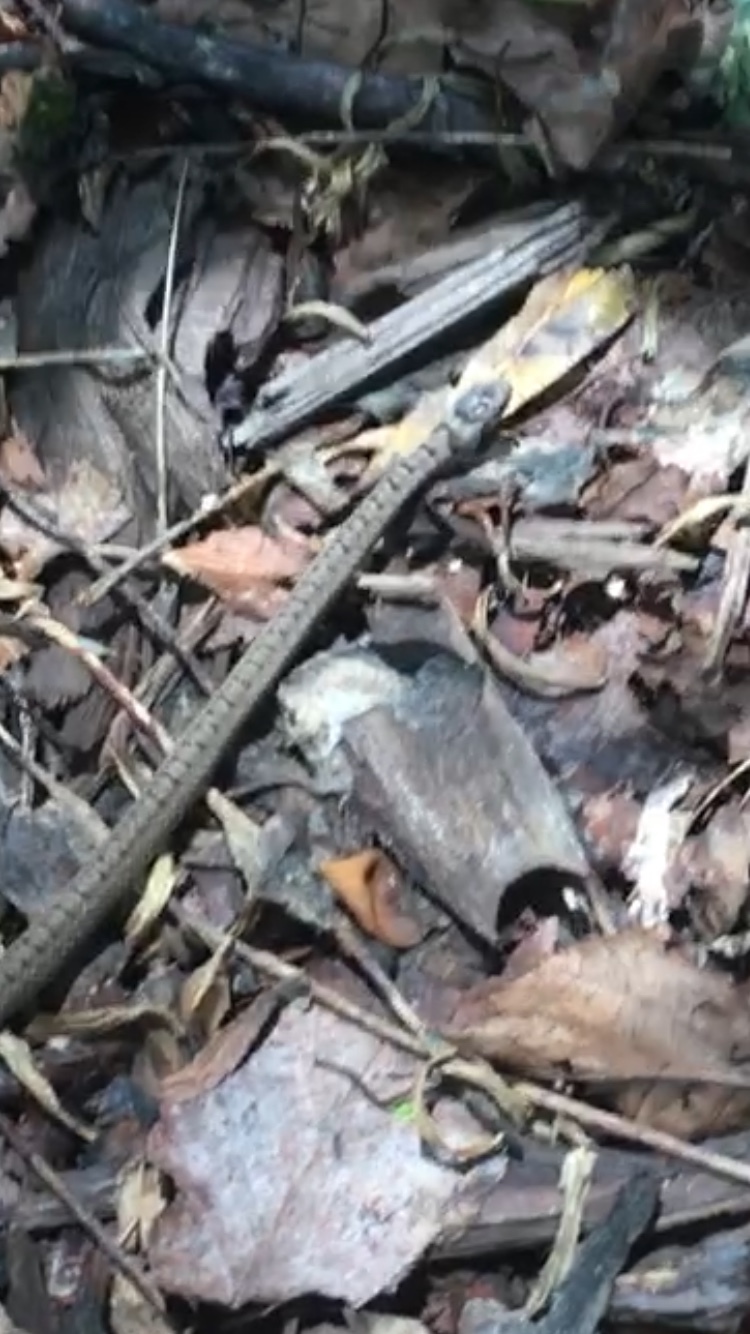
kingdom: Animalia
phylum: Chordata
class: Squamata
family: Colubridae
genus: Storeria
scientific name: Storeria dekayi
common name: (dekay’s) brown snake
